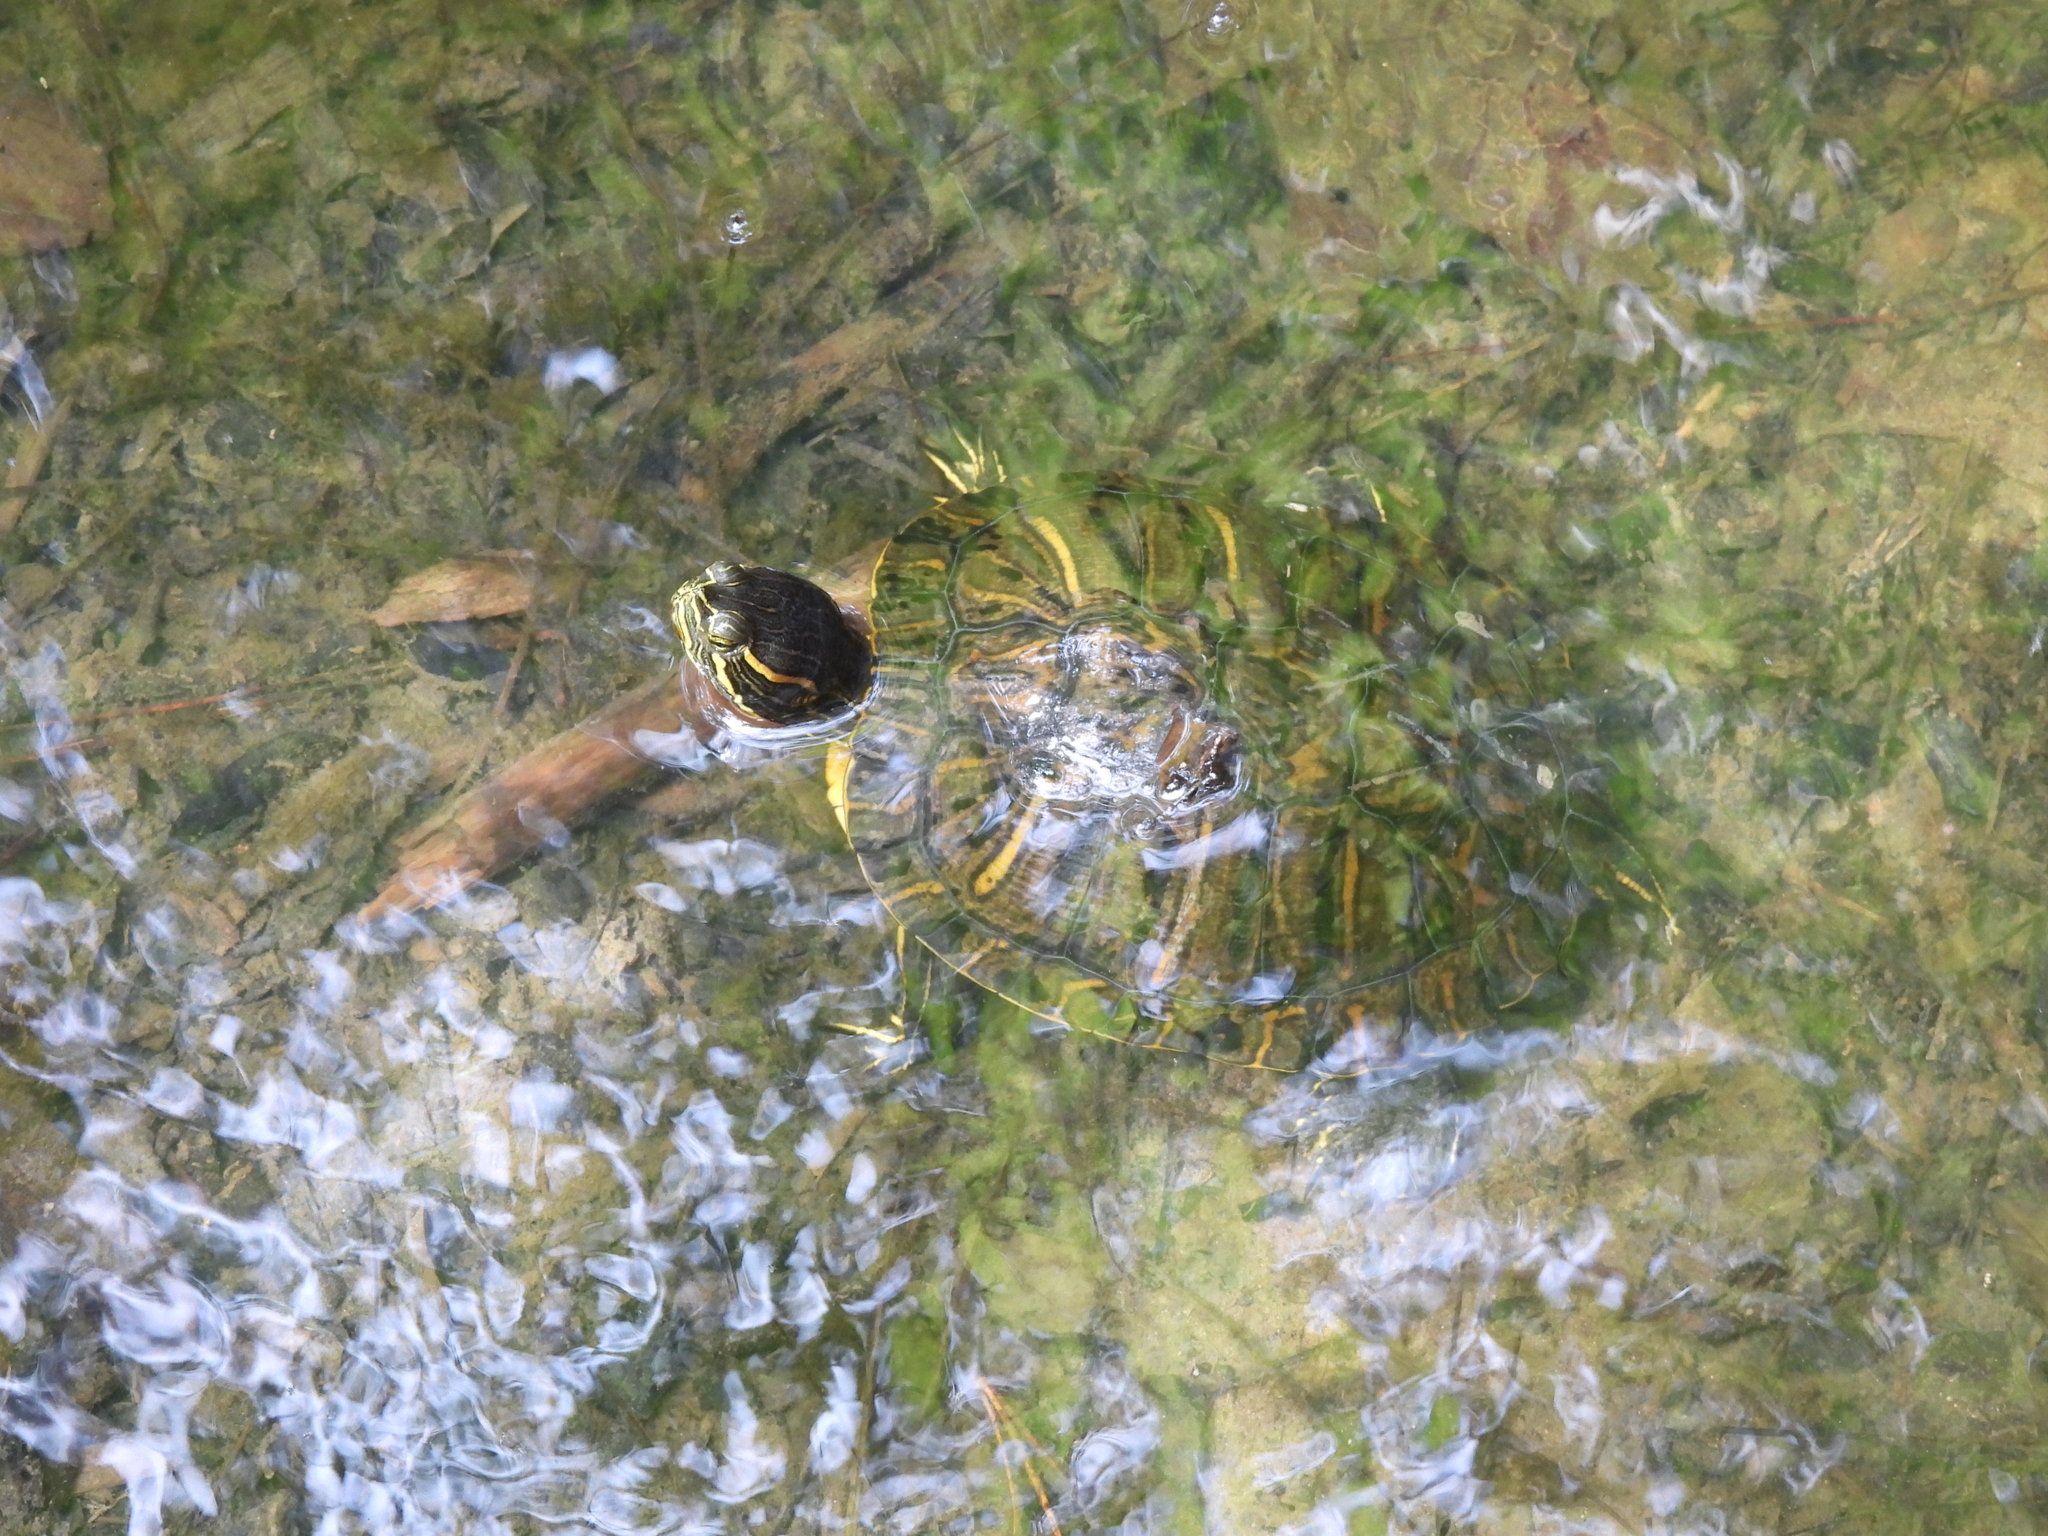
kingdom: Animalia
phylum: Chordata
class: Testudines
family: Emydidae
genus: Trachemys
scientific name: Trachemys scripta
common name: Slider
